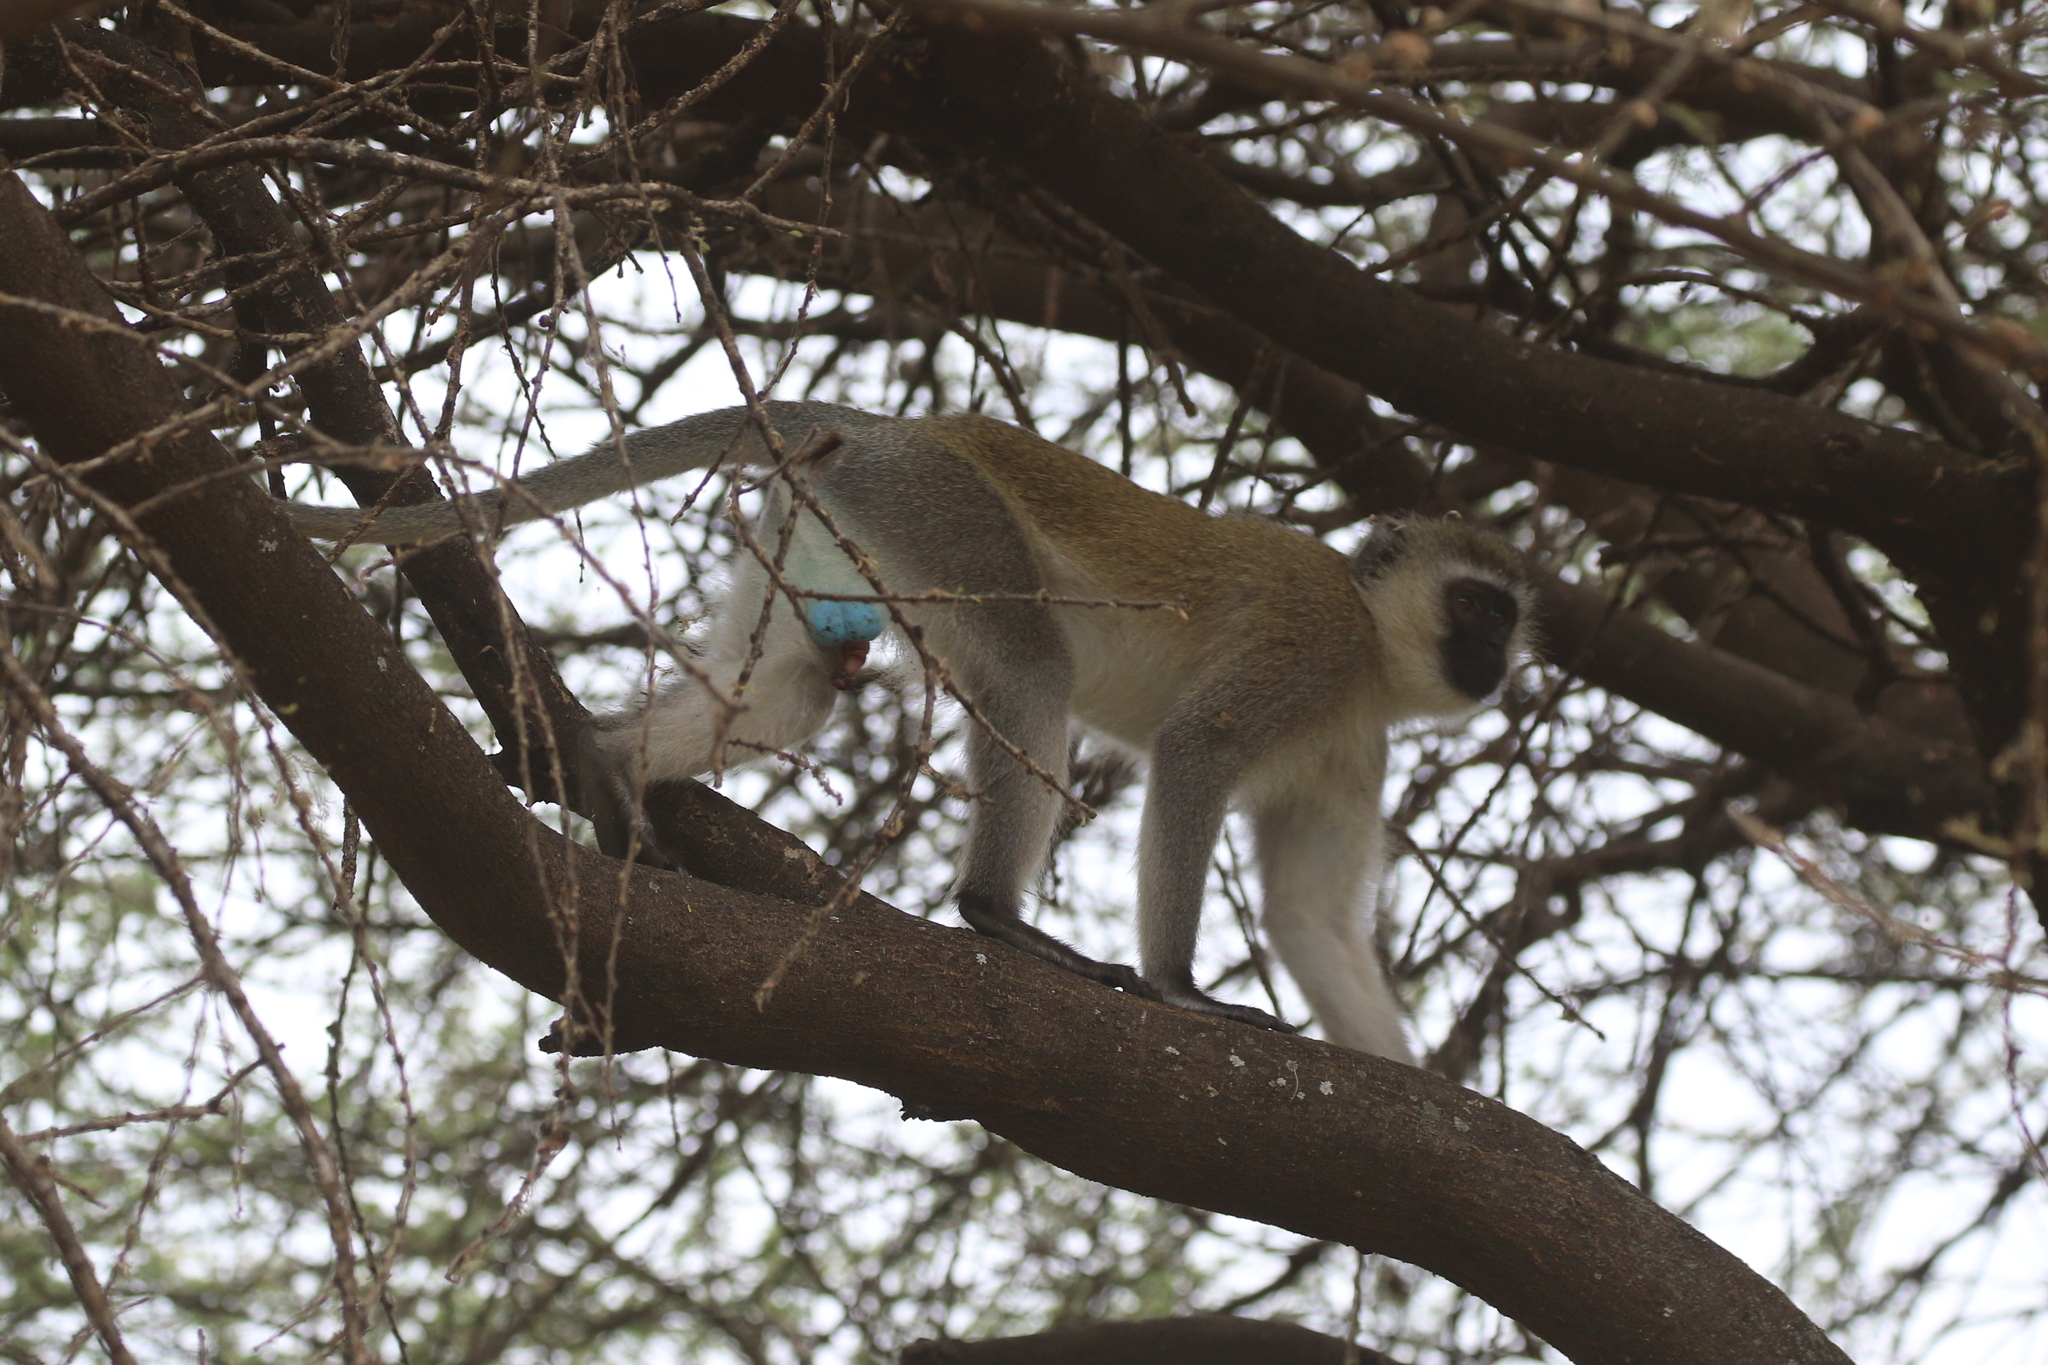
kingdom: Animalia
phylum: Chordata
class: Mammalia
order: Primates
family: Cercopithecidae
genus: Chlorocebus
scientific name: Chlorocebus pygerythrus
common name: Vervet monkey
